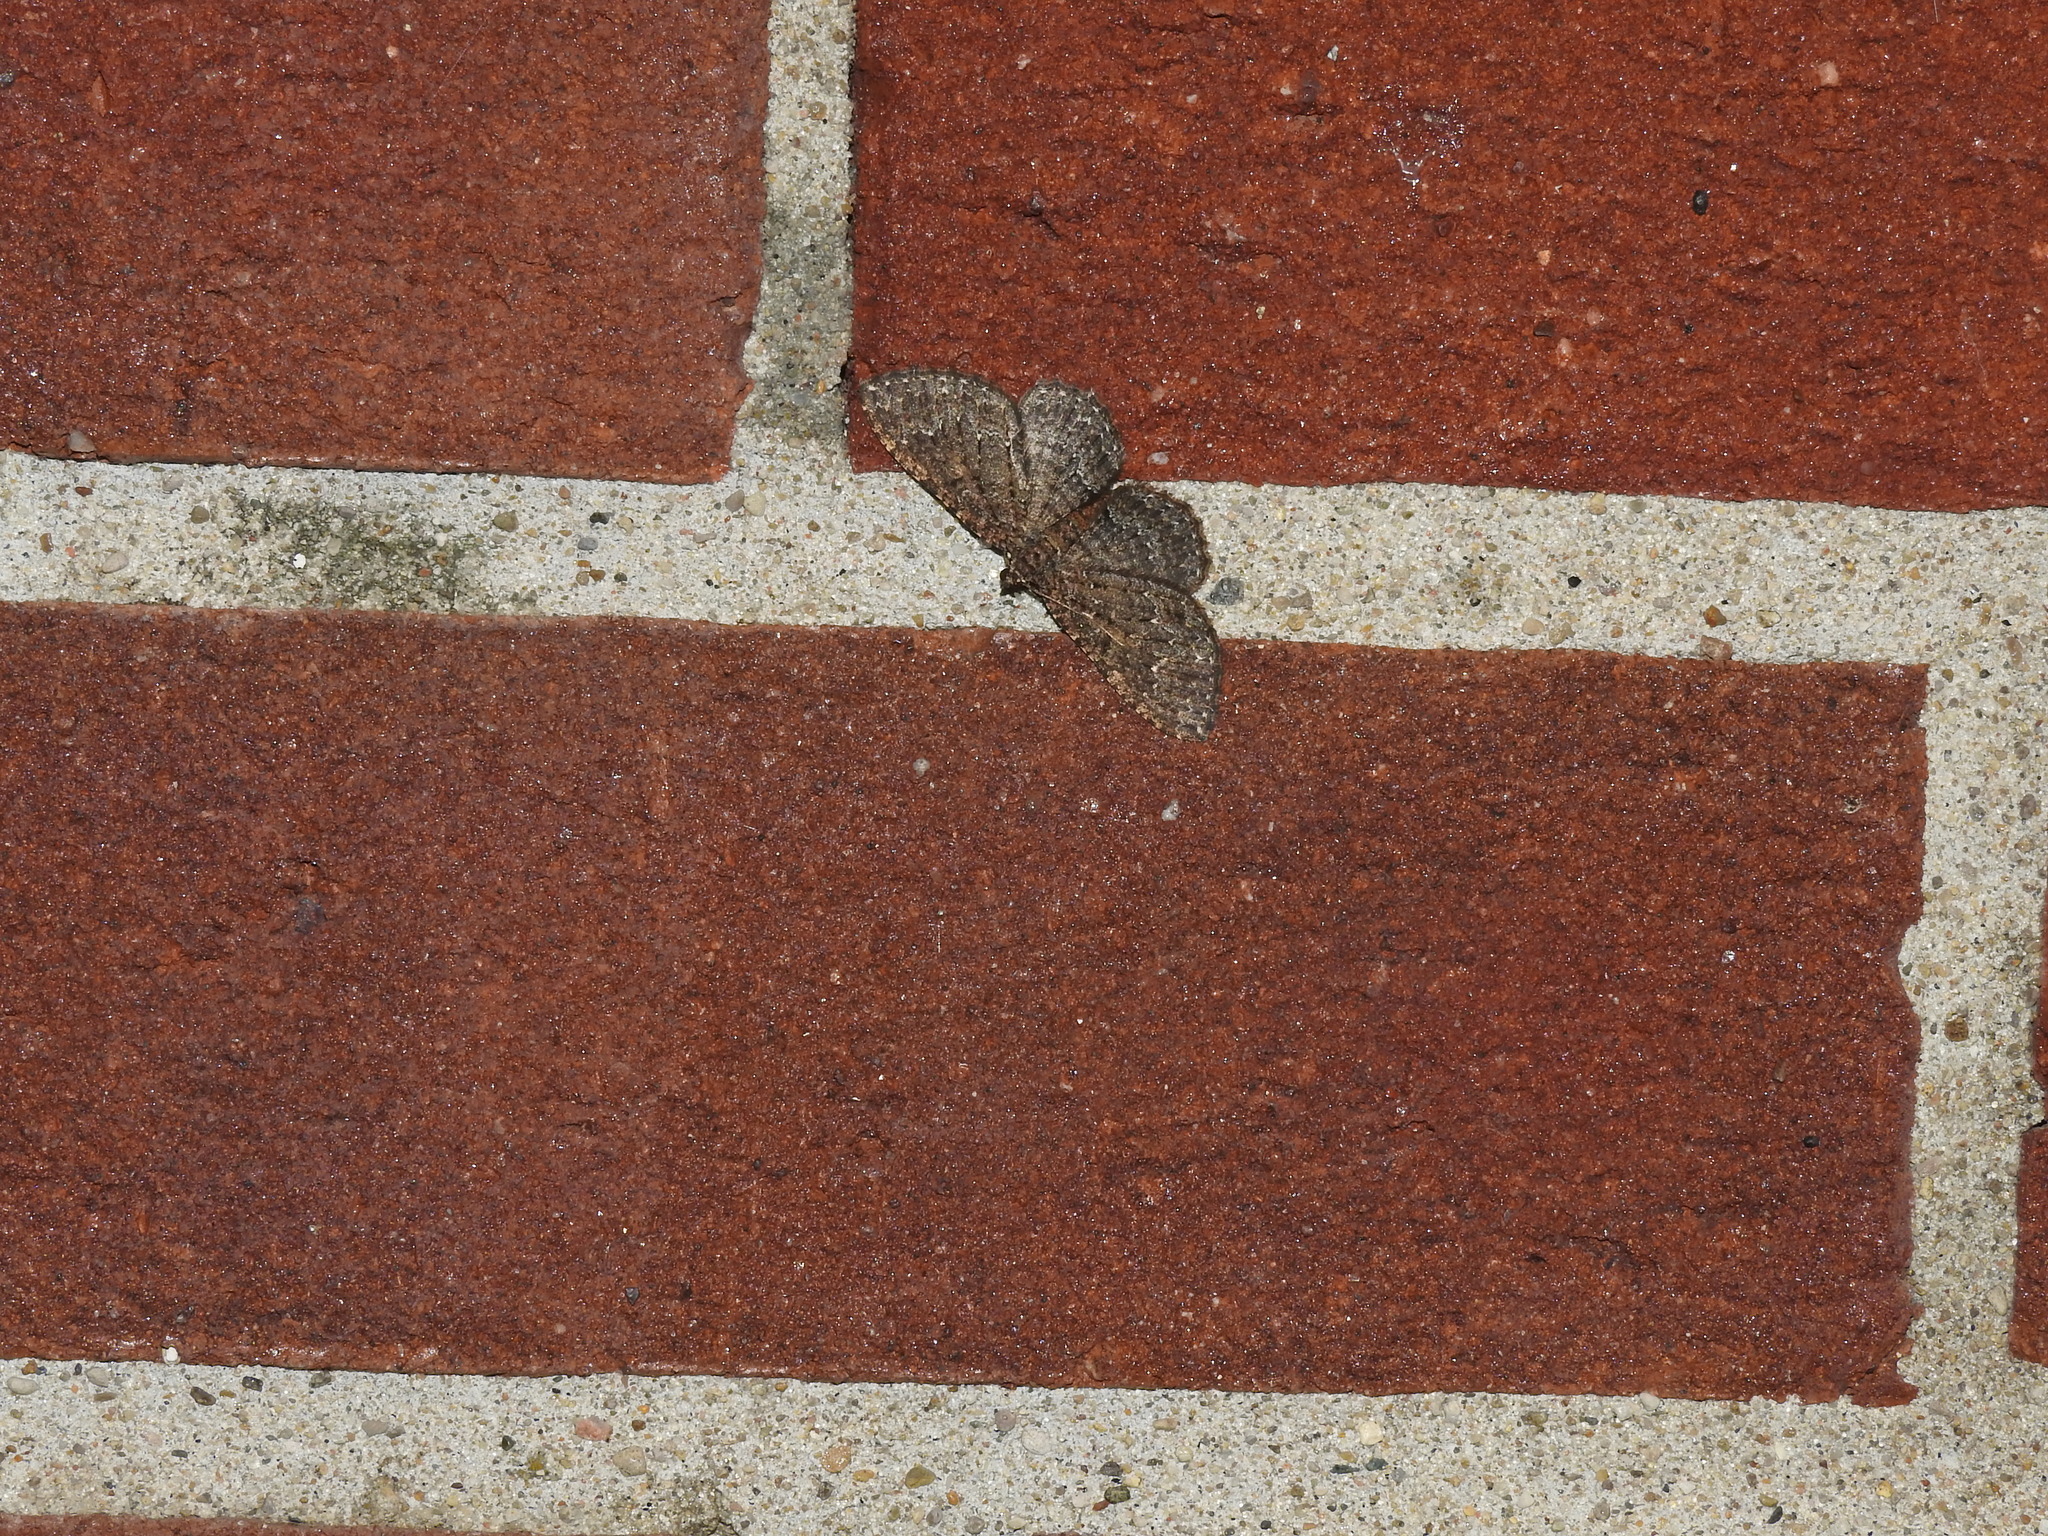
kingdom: Animalia
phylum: Arthropoda
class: Insecta
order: Lepidoptera
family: Geometridae
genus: Disclisioprocta
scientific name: Disclisioprocta stellata
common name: Somber carpet
